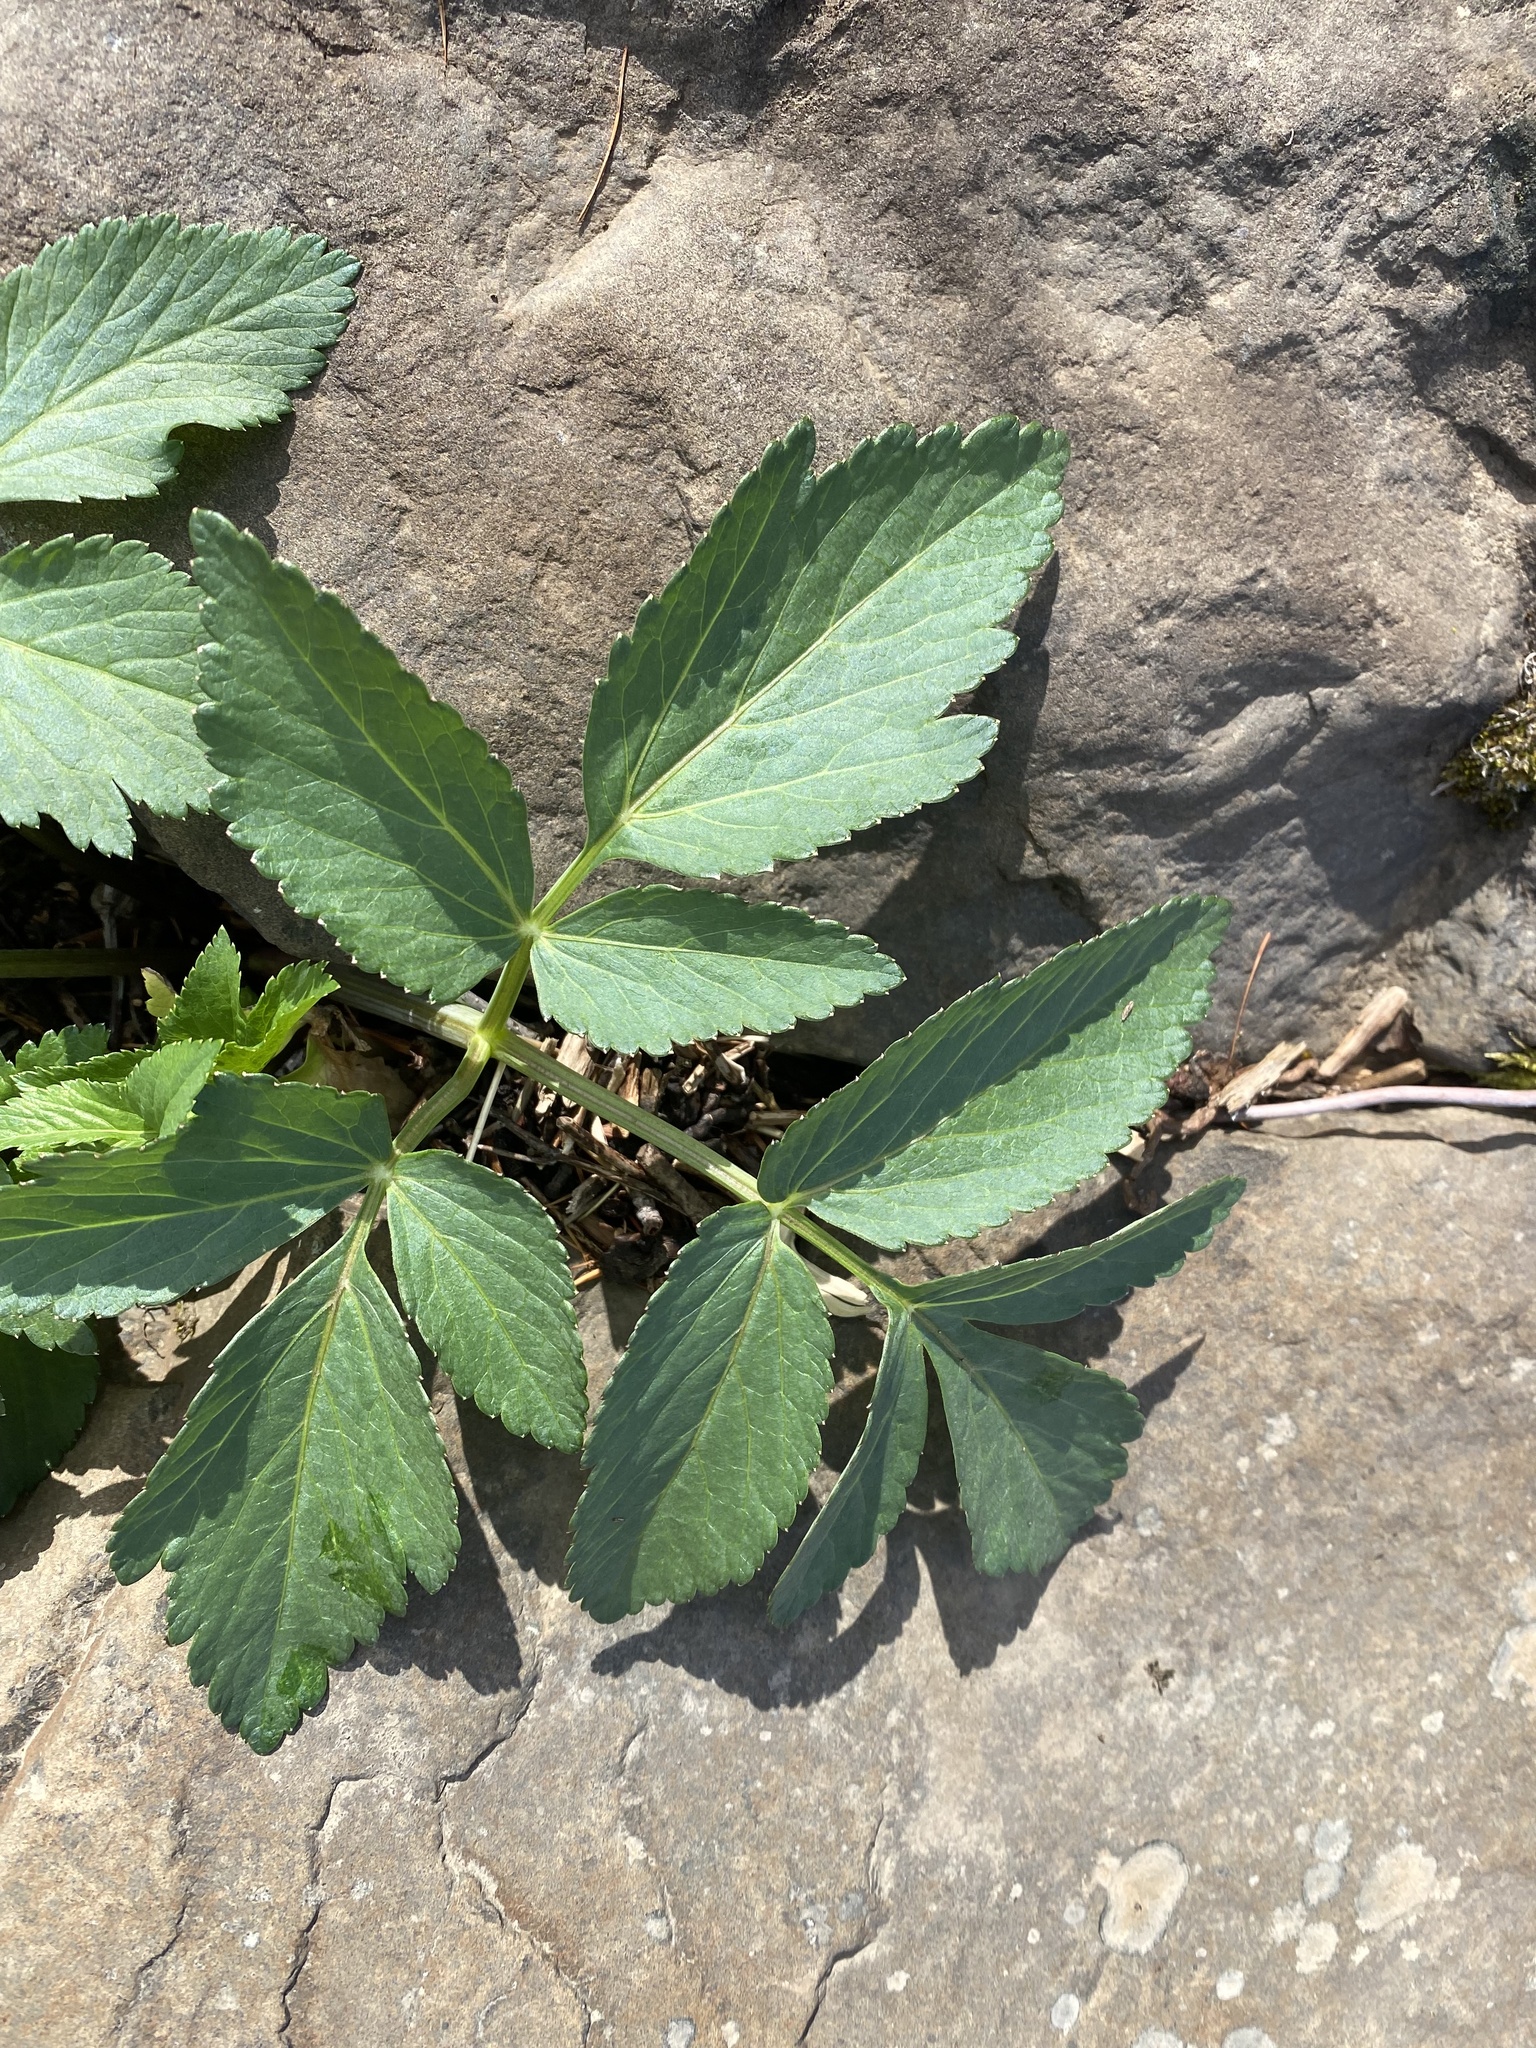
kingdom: Plantae
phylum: Tracheophyta
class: Magnoliopsida
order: Apiales
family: Apiaceae
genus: Angelica
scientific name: Angelica decurrens
